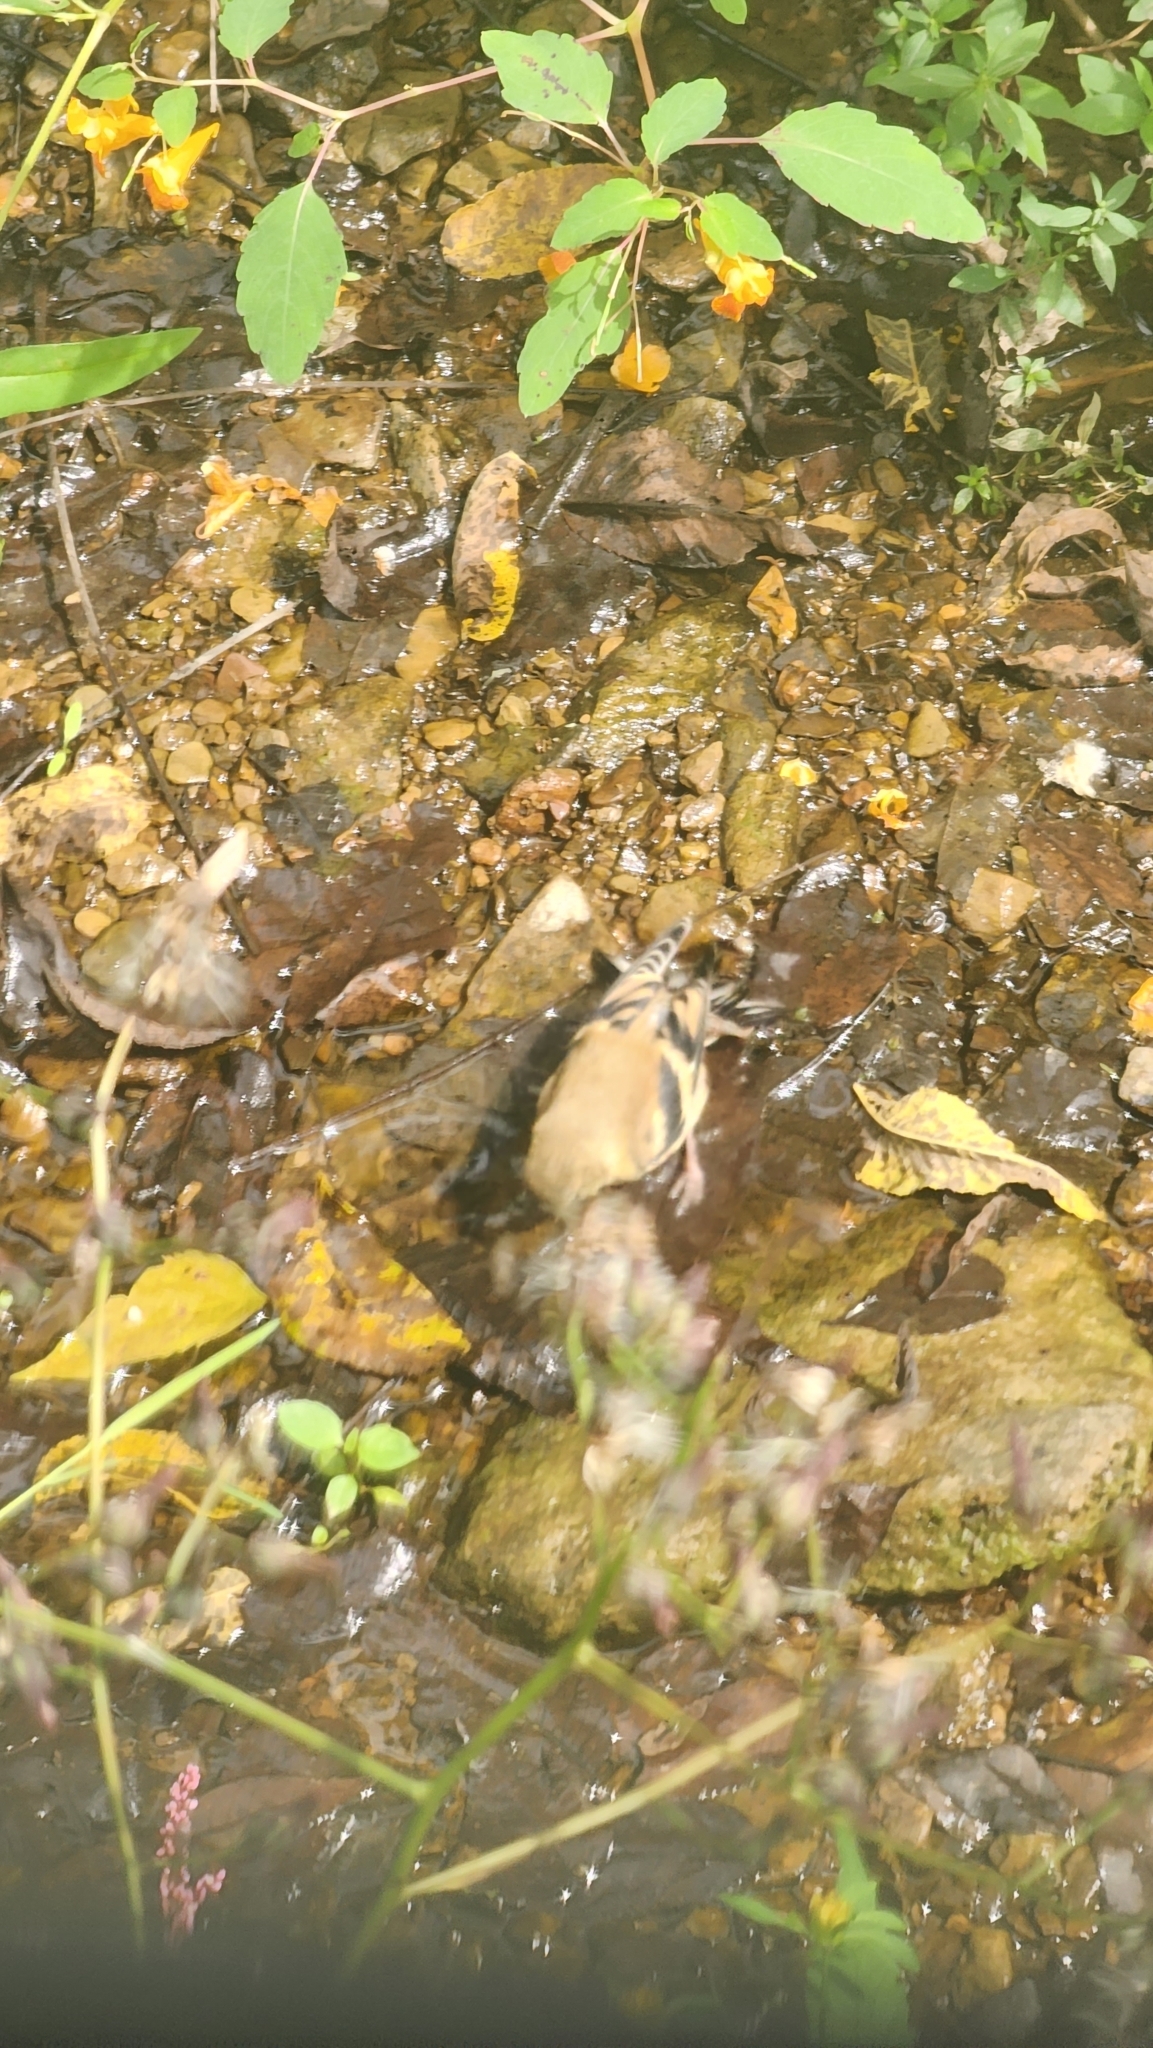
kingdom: Animalia
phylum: Chordata
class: Aves
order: Passeriformes
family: Fringillidae
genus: Spinus
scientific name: Spinus tristis
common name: American goldfinch
